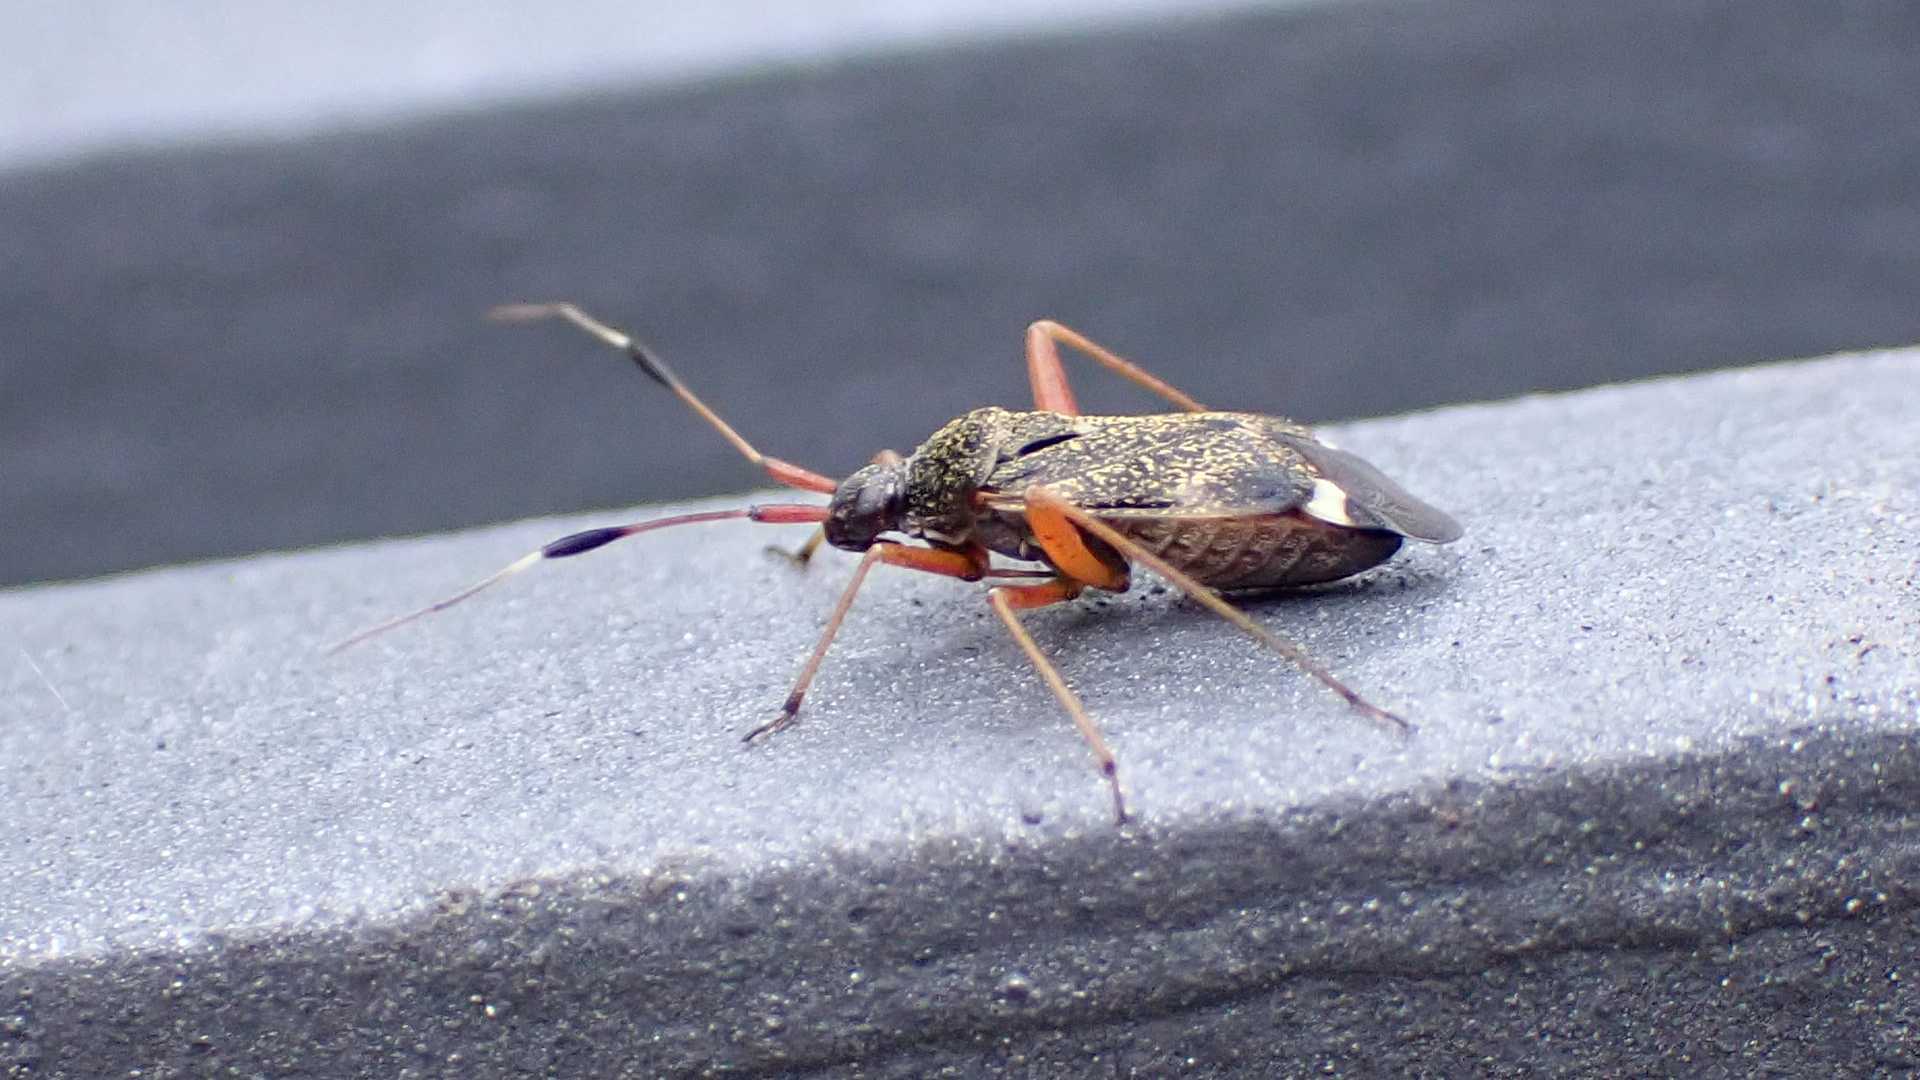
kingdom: Animalia
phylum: Arthropoda
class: Insecta
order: Hemiptera
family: Miridae
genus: Closterotomus
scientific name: Closterotomus biclavatus
